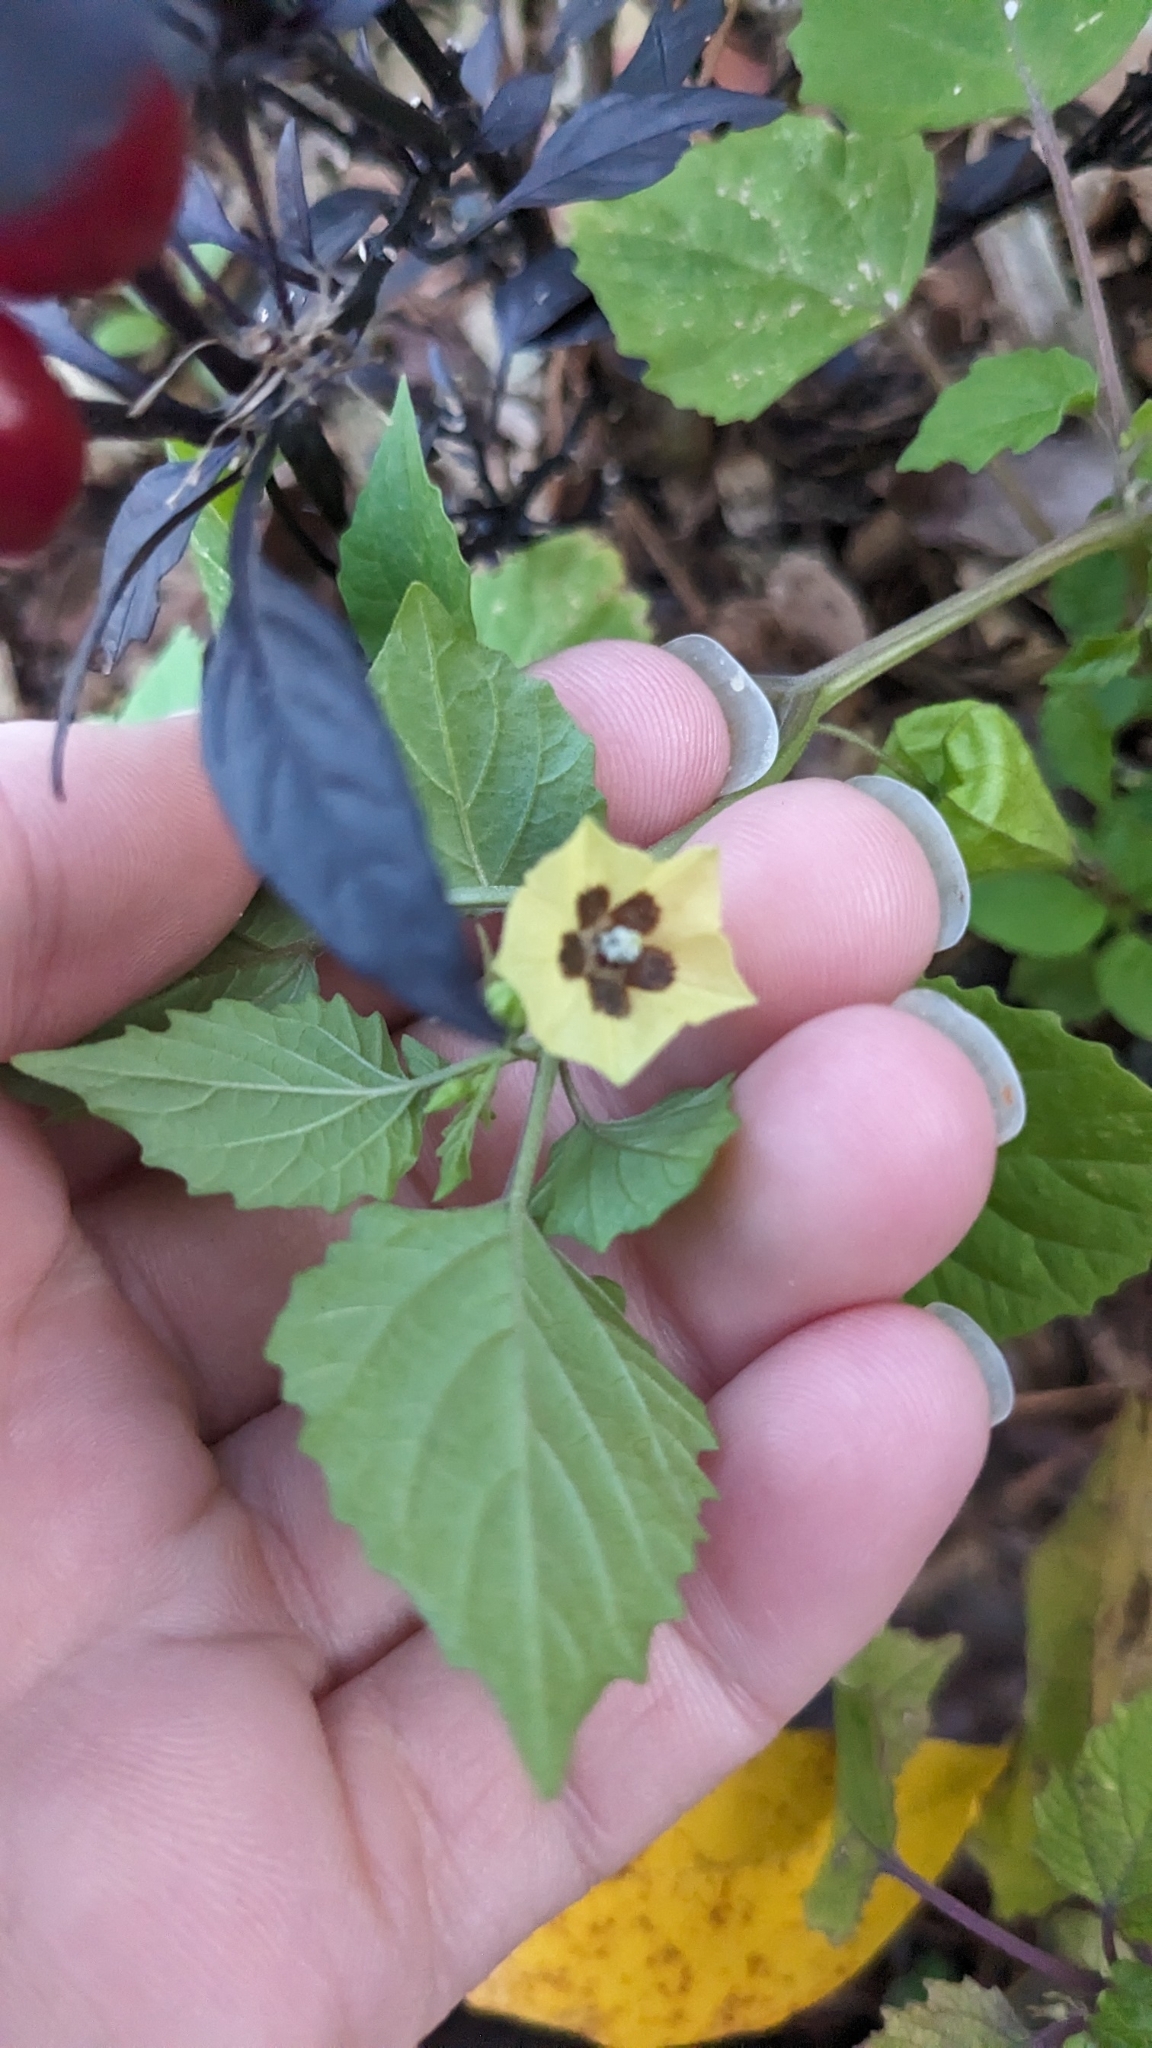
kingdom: Plantae
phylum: Tracheophyta
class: Magnoliopsida
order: Solanales
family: Solanaceae
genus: Physalis
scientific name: Physalis cordata
